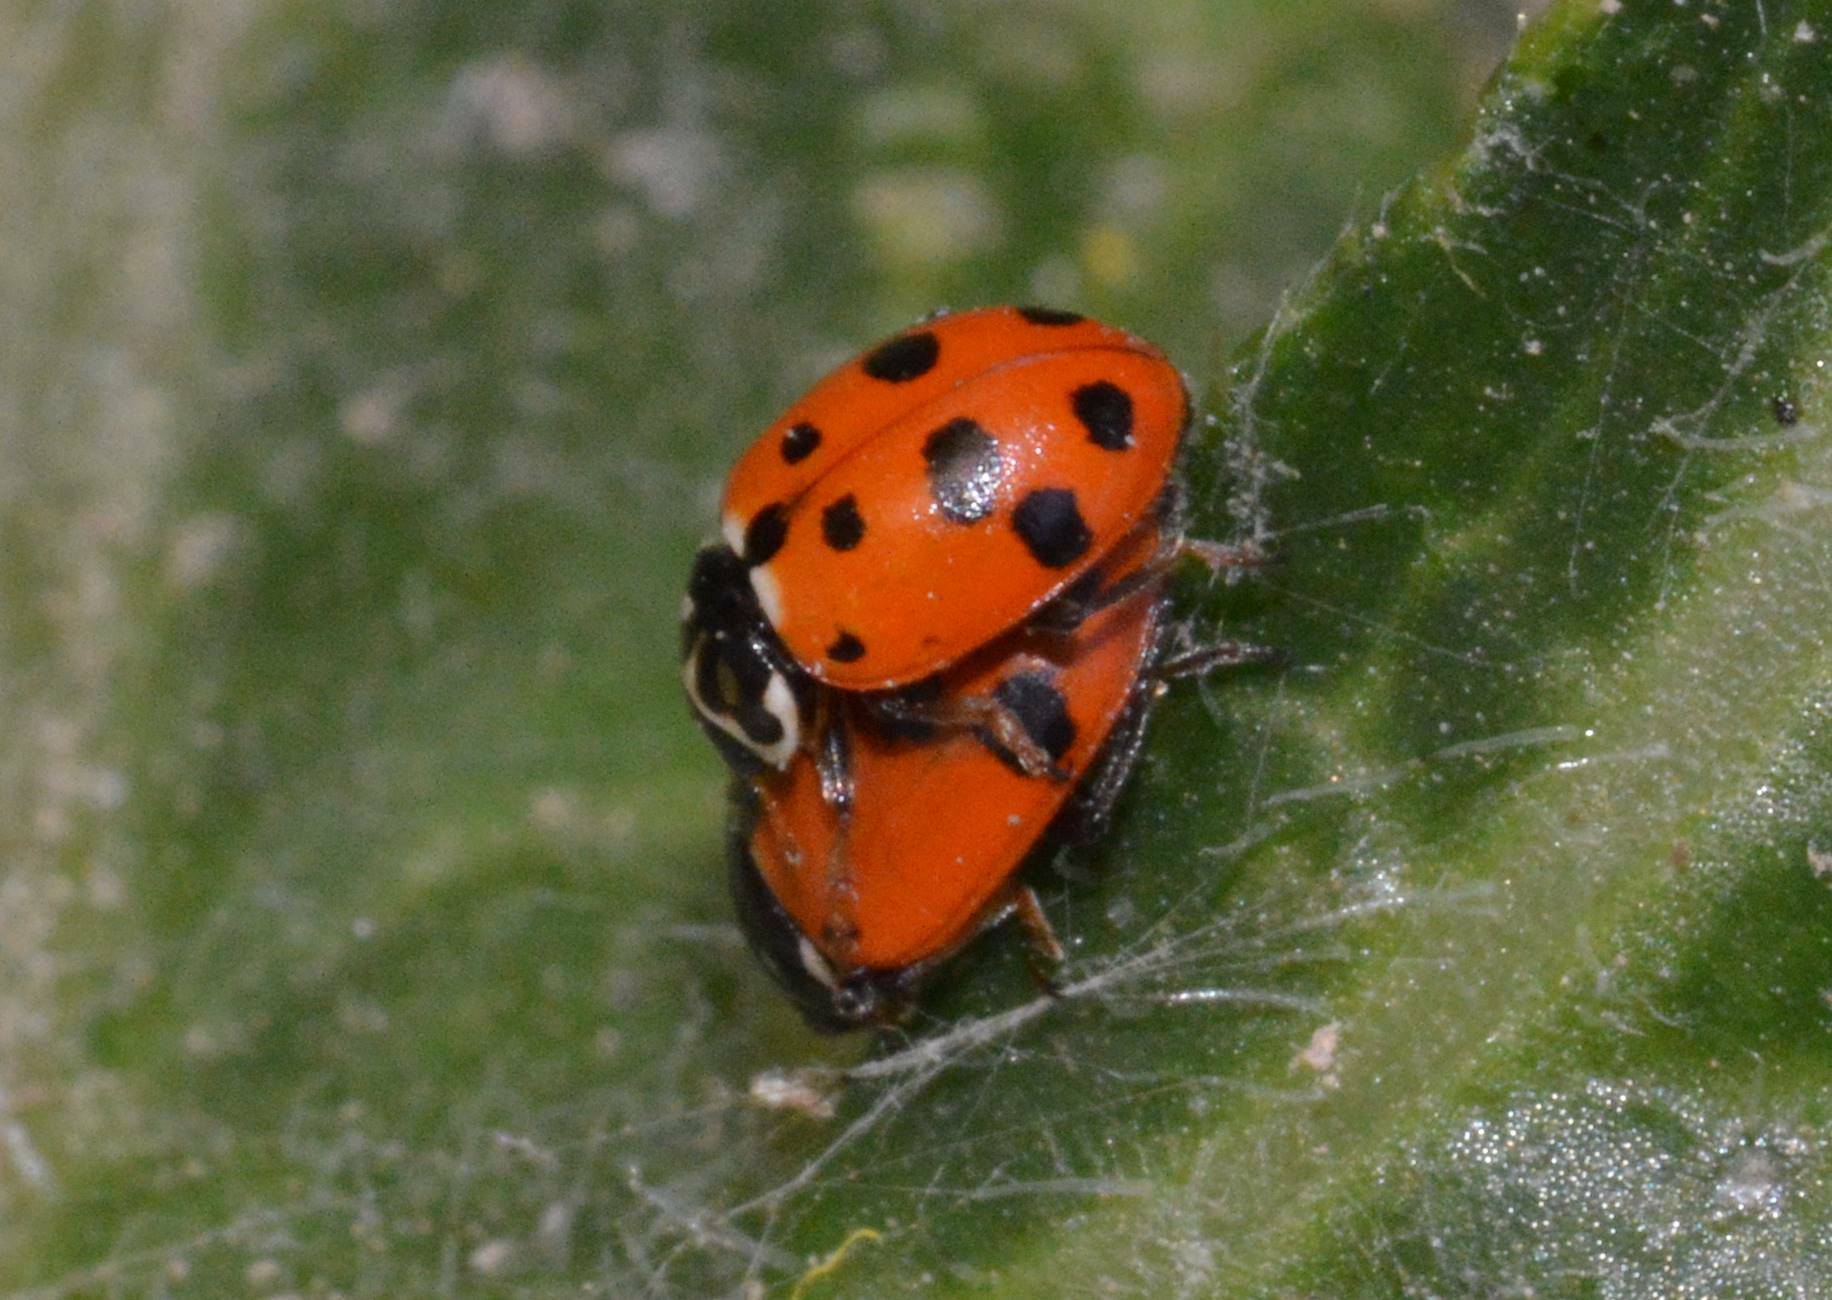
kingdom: Animalia
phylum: Arthropoda
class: Insecta
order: Coleoptera
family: Coccinellidae
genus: Hippodamia
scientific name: Hippodamia variegata
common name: Ladybird beetle
